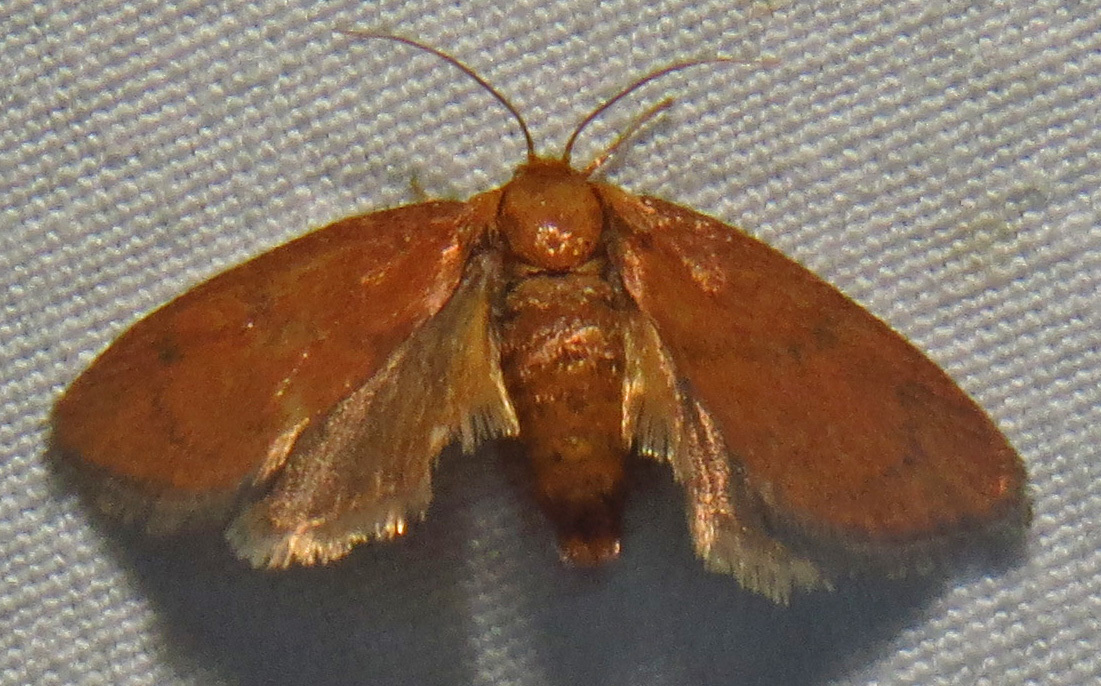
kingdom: Animalia
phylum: Arthropoda
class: Insecta
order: Lepidoptera
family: Limacodidae
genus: Heterogenea
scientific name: Heterogenea shurtleffi
